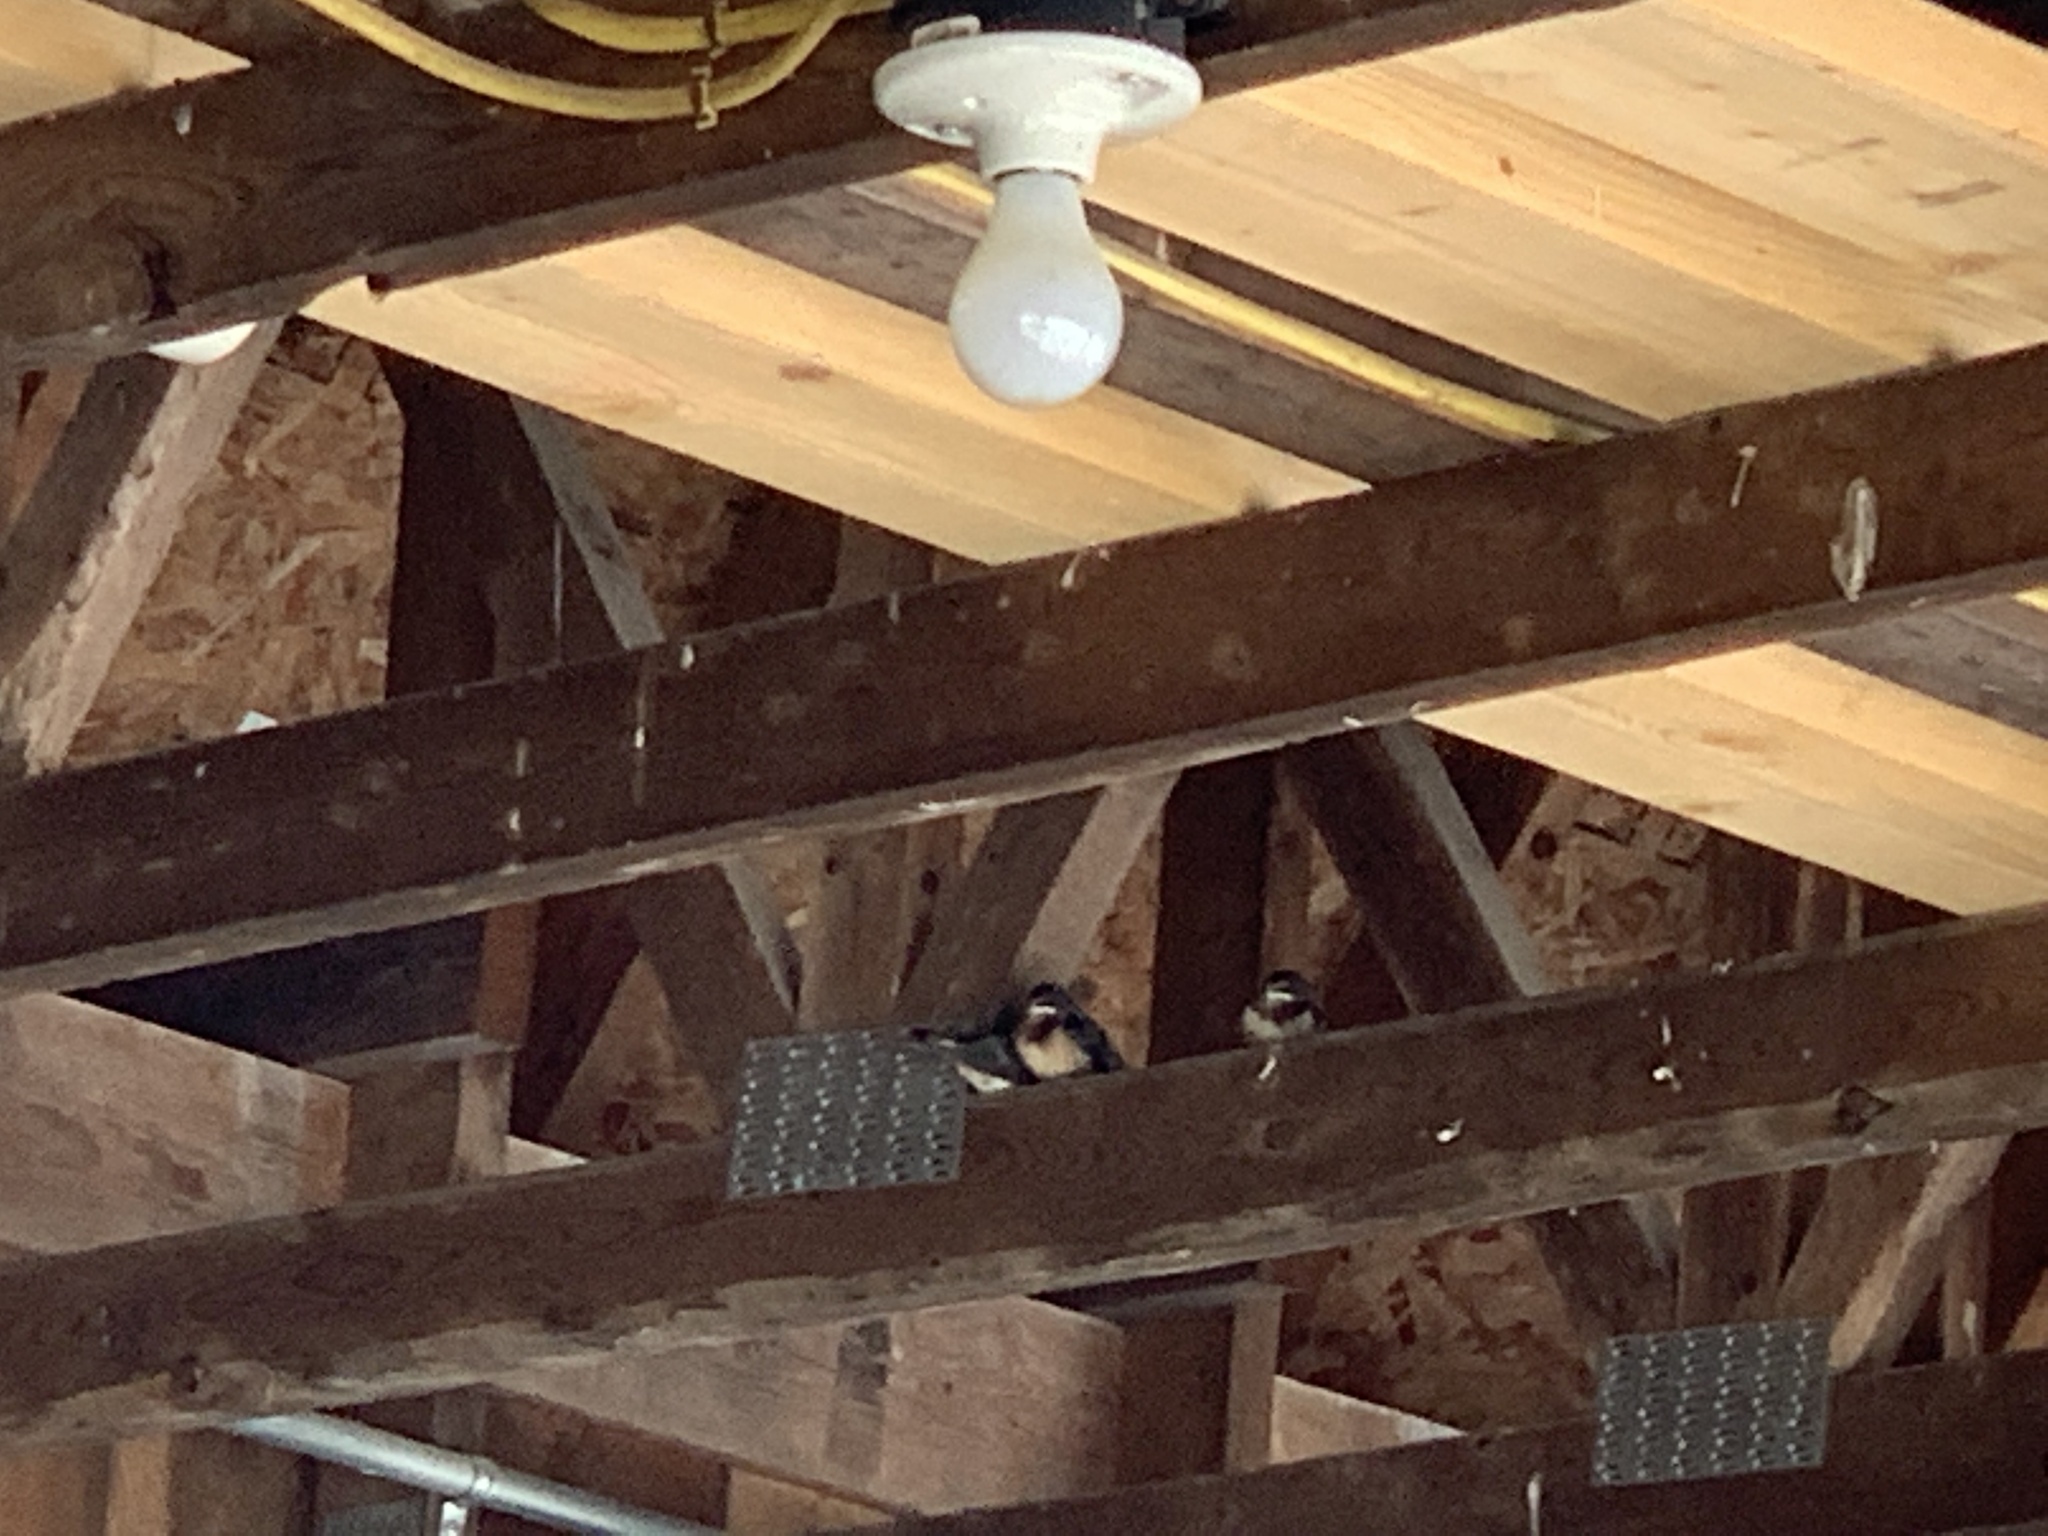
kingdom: Animalia
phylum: Chordata
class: Aves
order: Passeriformes
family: Hirundinidae
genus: Hirundo
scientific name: Hirundo rustica
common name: Barn swallow
